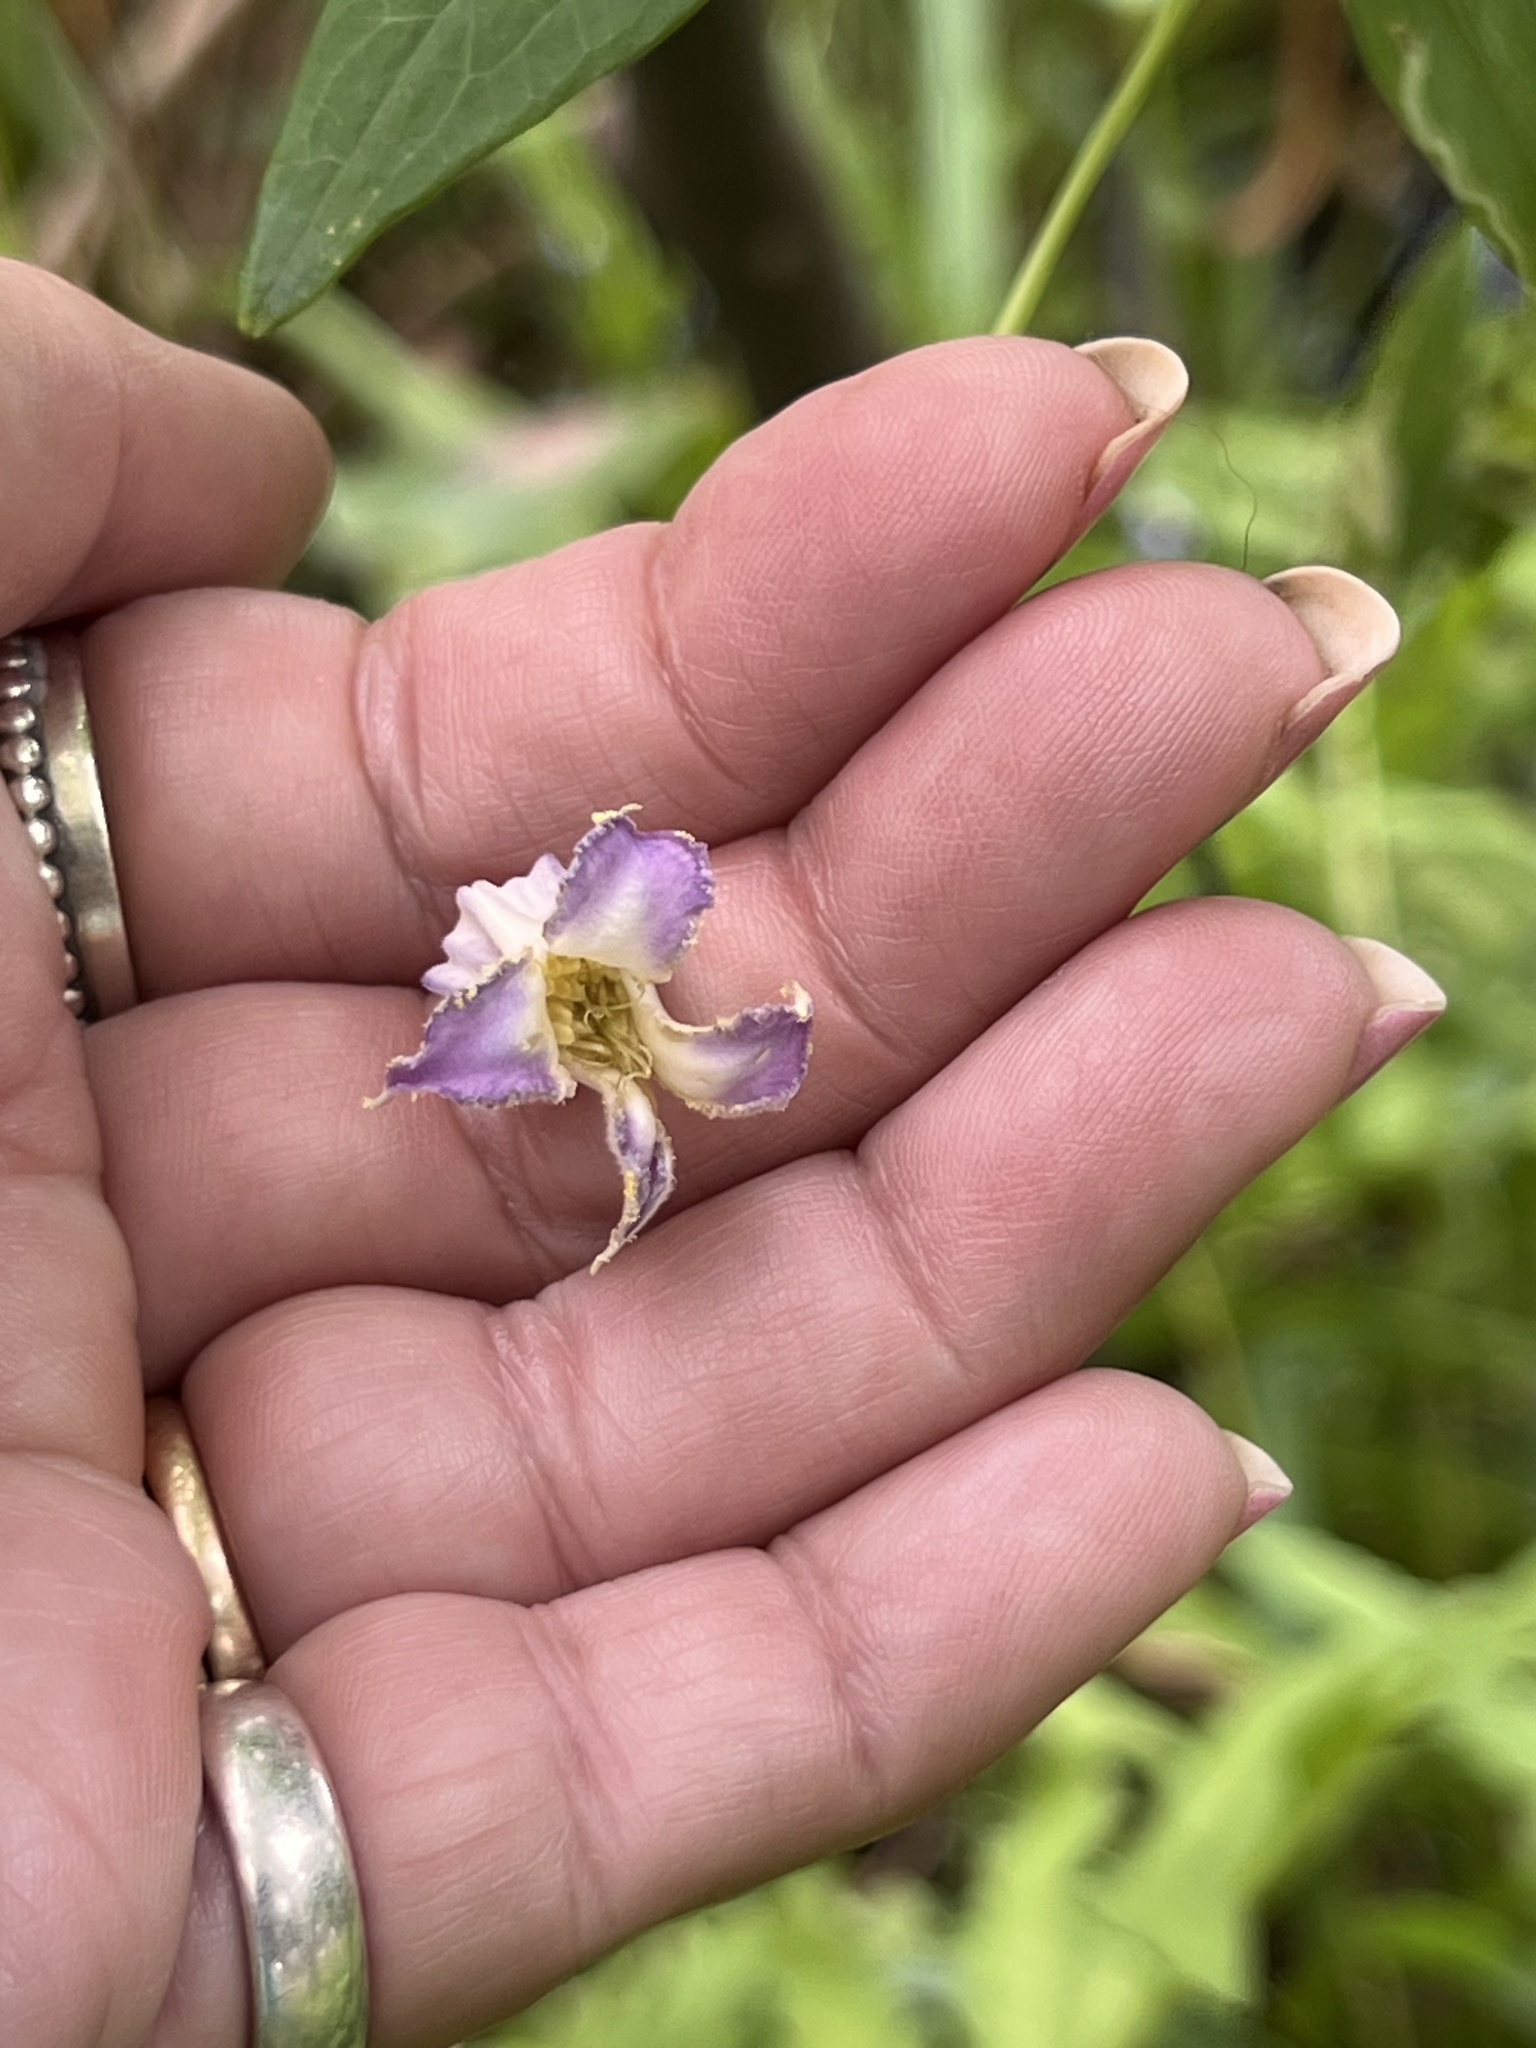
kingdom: Plantae
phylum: Tracheophyta
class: Magnoliopsida
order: Ranunculales
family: Ranunculaceae
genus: Clematis
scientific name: Clematis crispa
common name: Curly clematis
